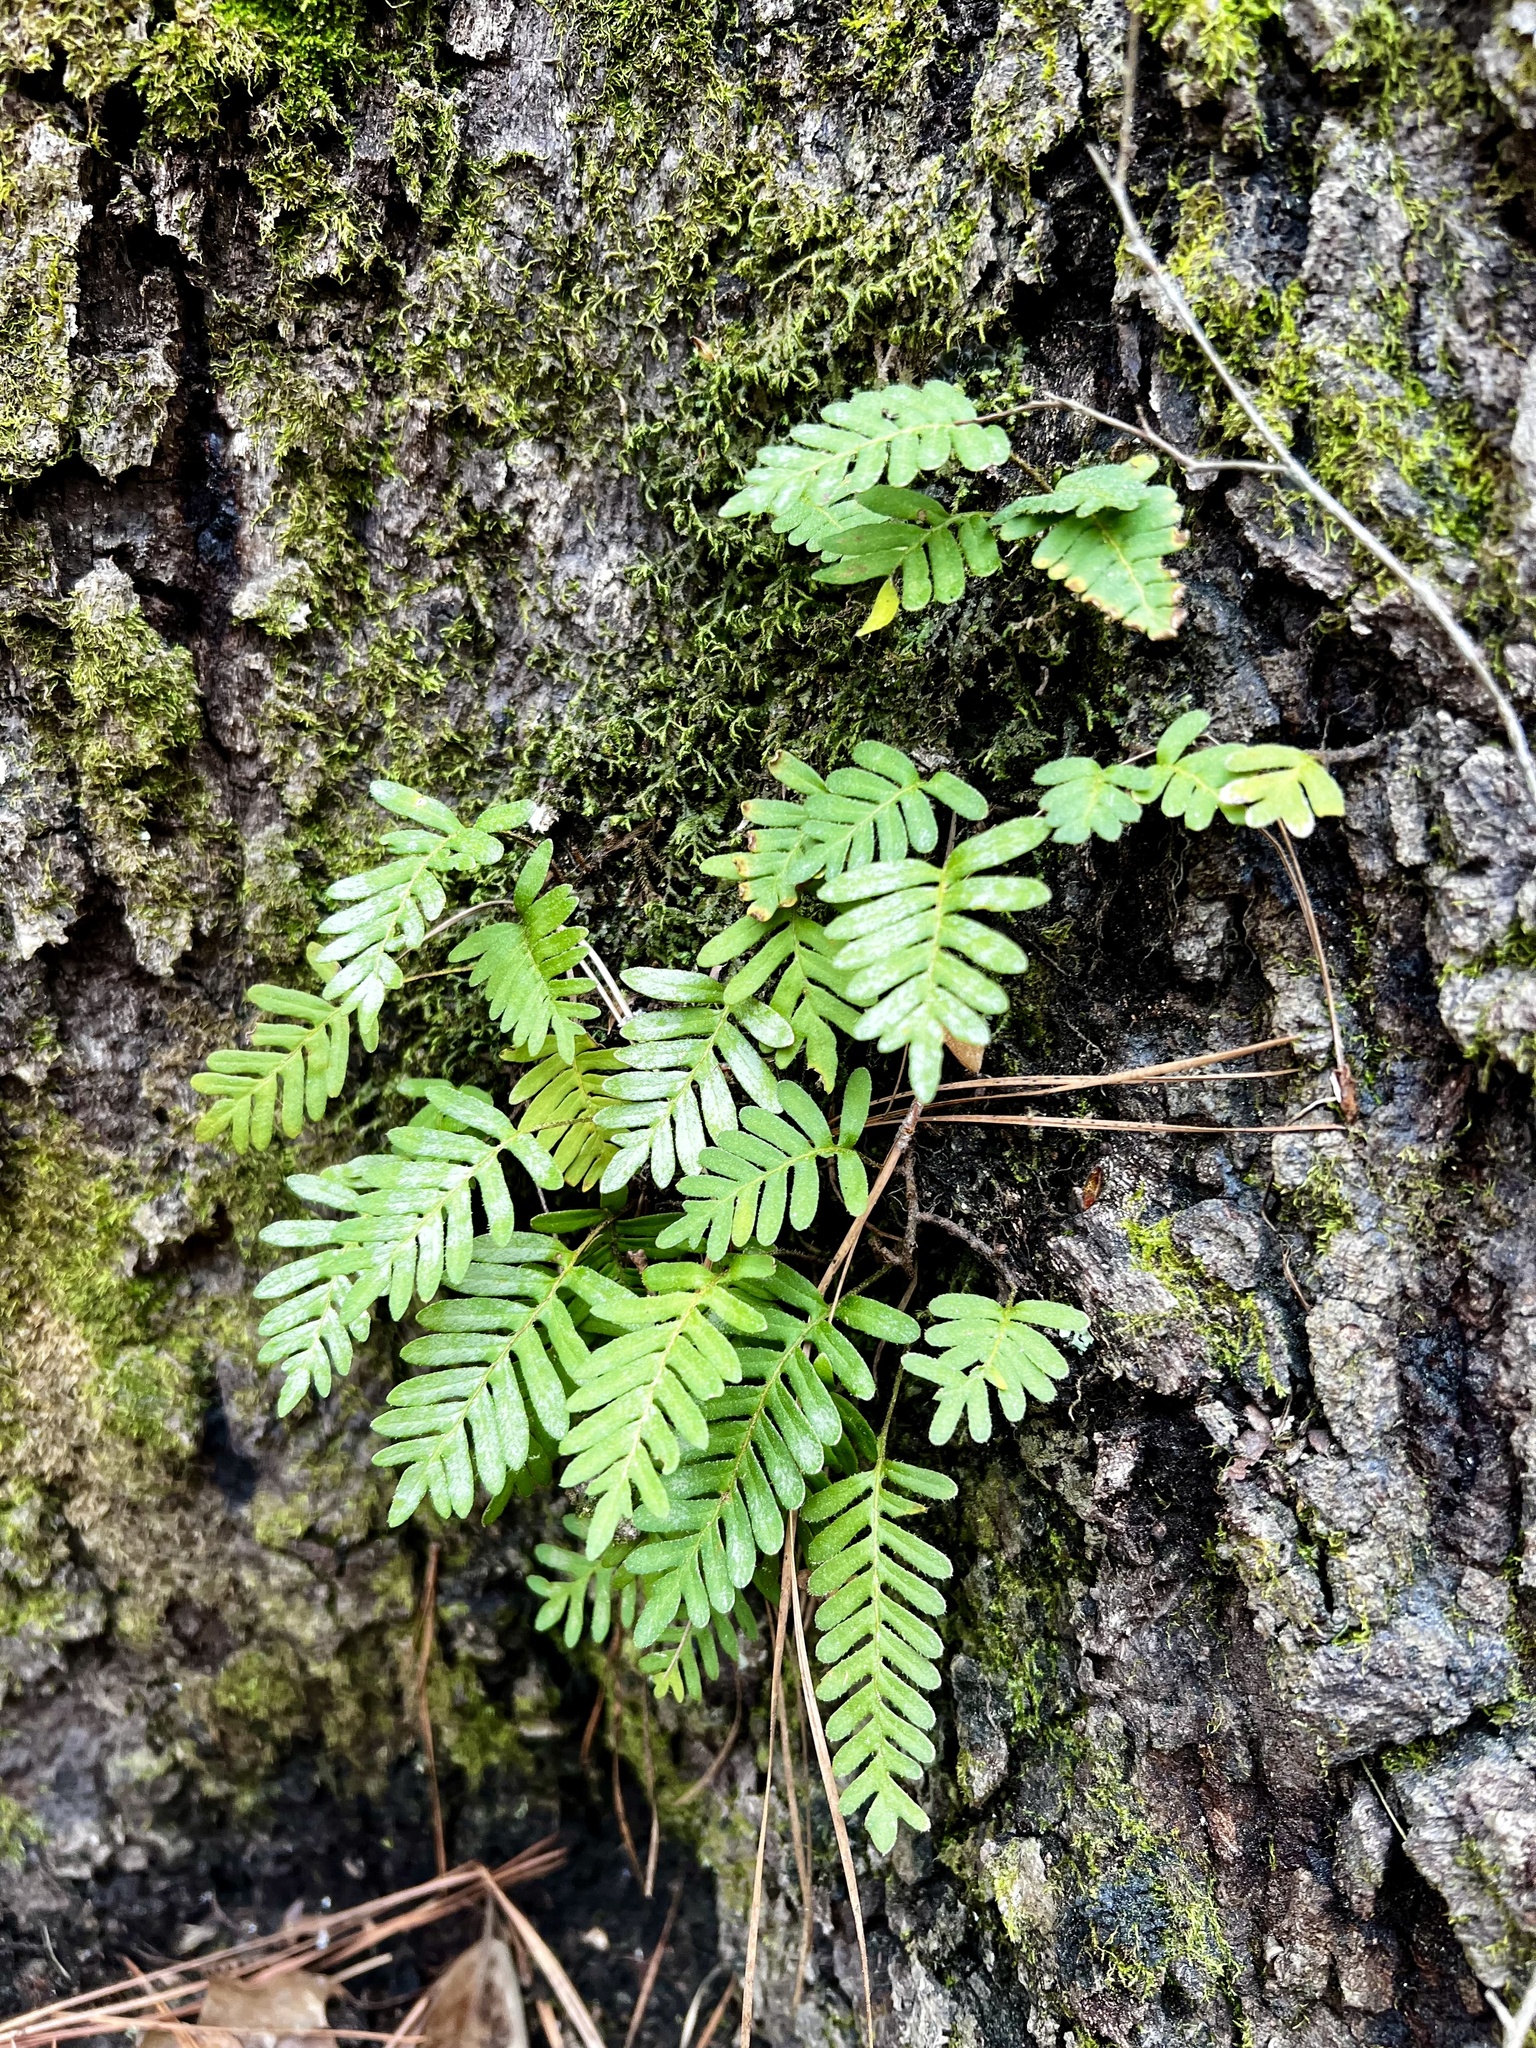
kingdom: Plantae
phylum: Tracheophyta
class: Polypodiopsida
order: Polypodiales
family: Polypodiaceae
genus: Pleopeltis
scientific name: Pleopeltis michauxiana
